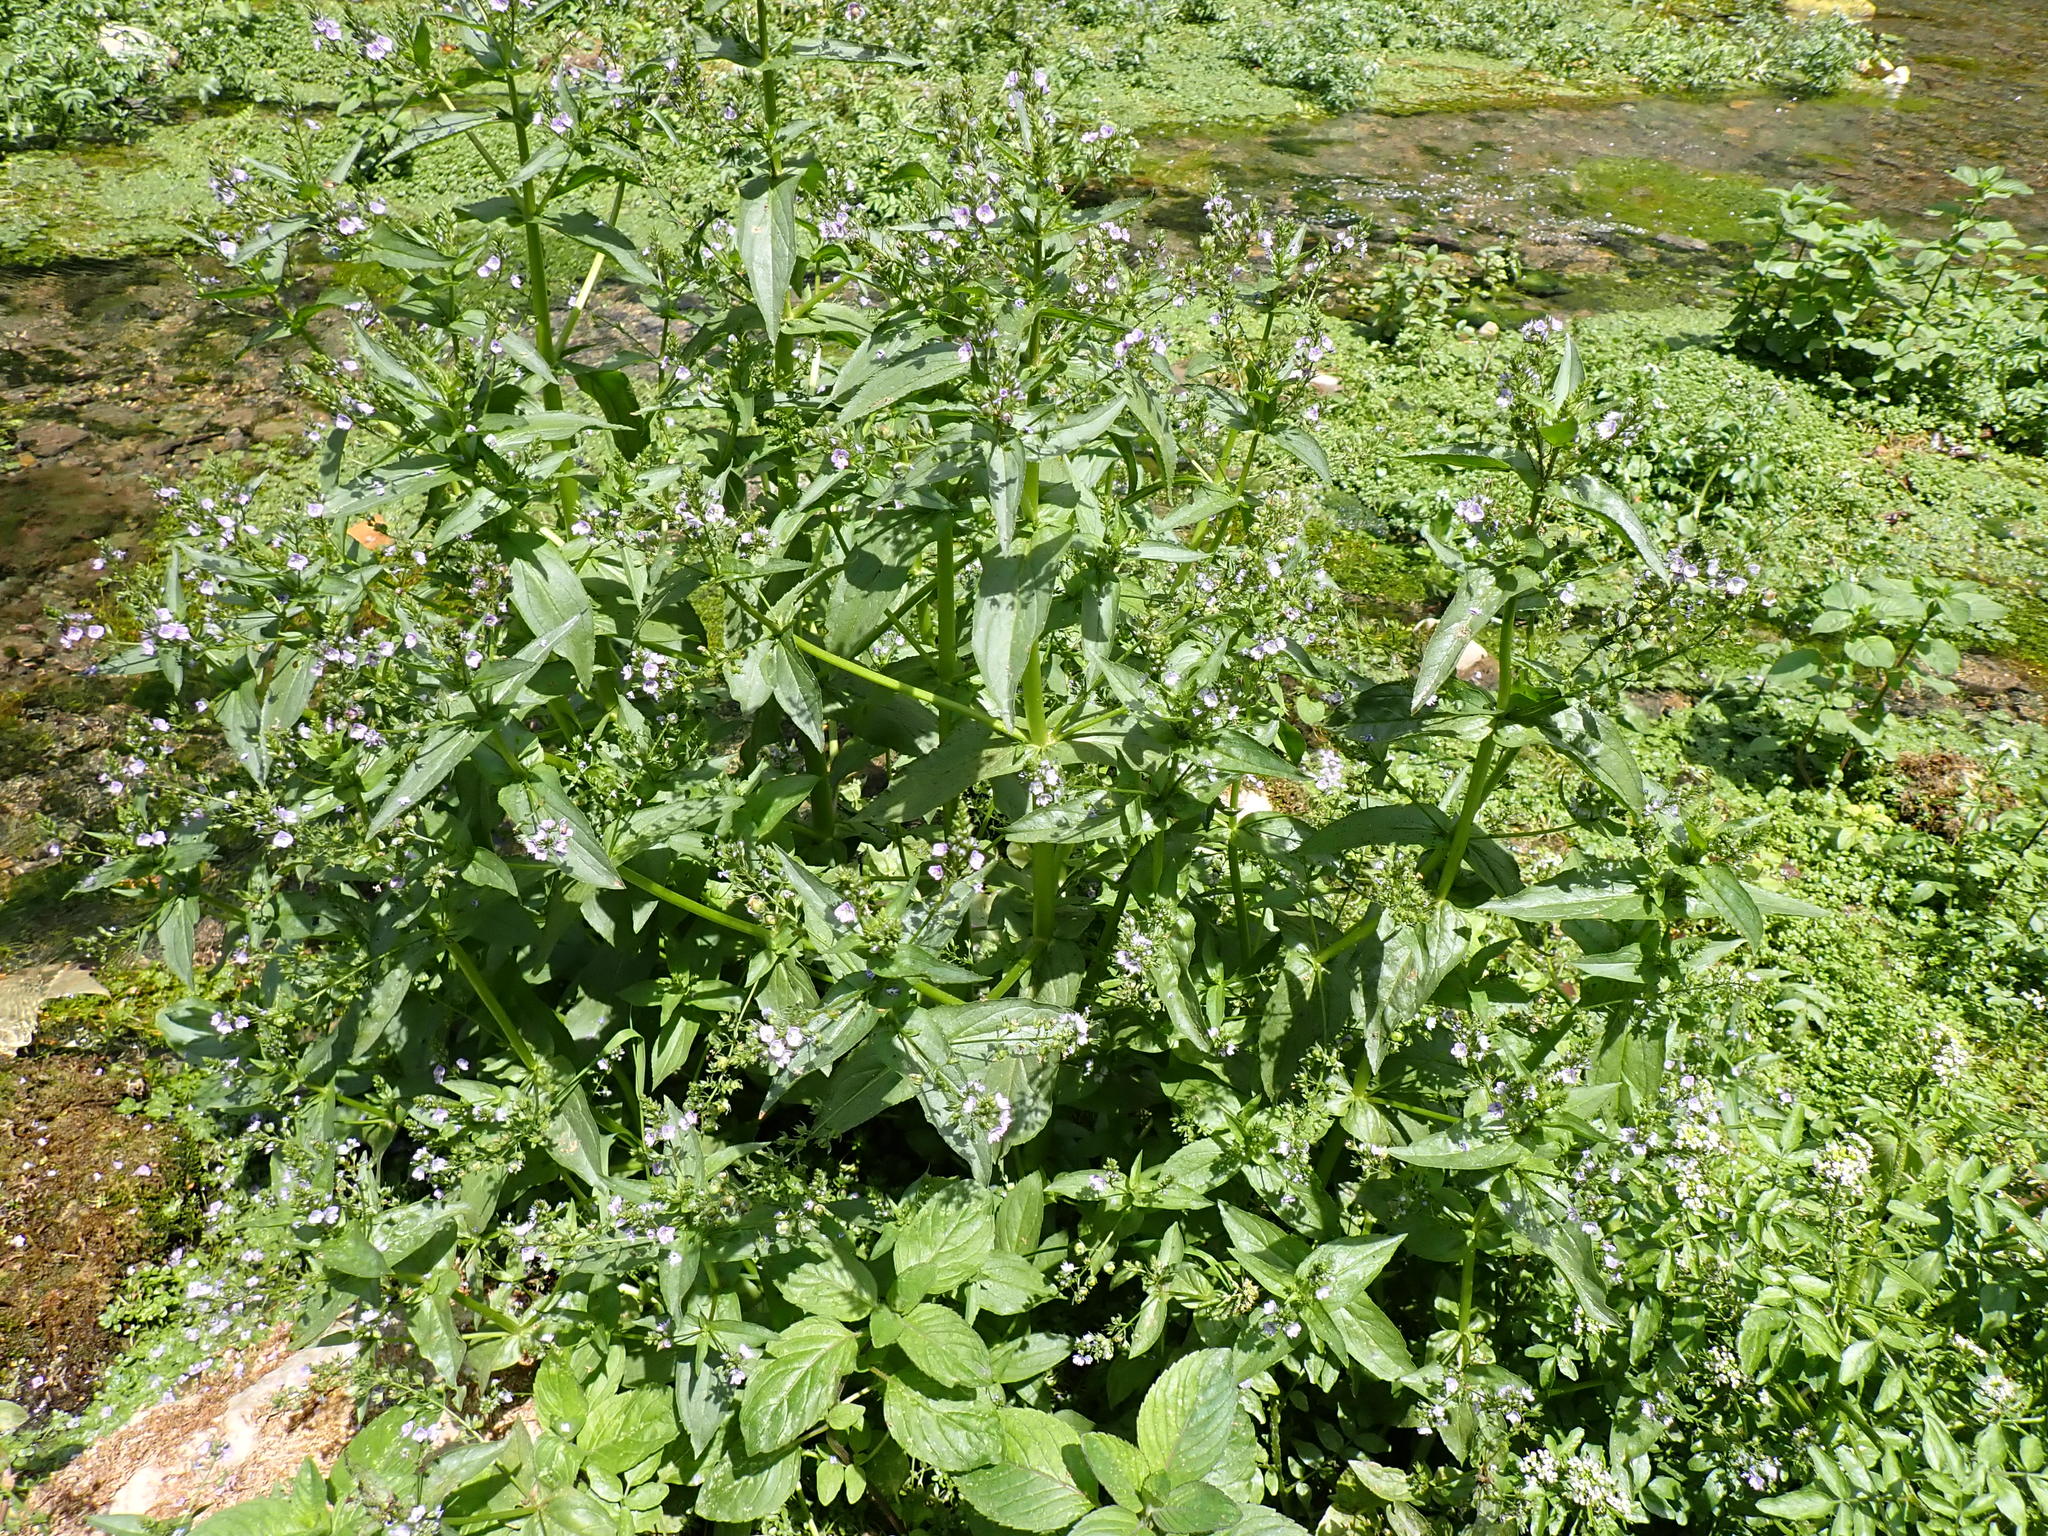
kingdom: Plantae
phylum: Tracheophyta
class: Magnoliopsida
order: Lamiales
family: Plantaginaceae
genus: Veronica
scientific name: Veronica anagallis-aquatica
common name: Water speedwell
